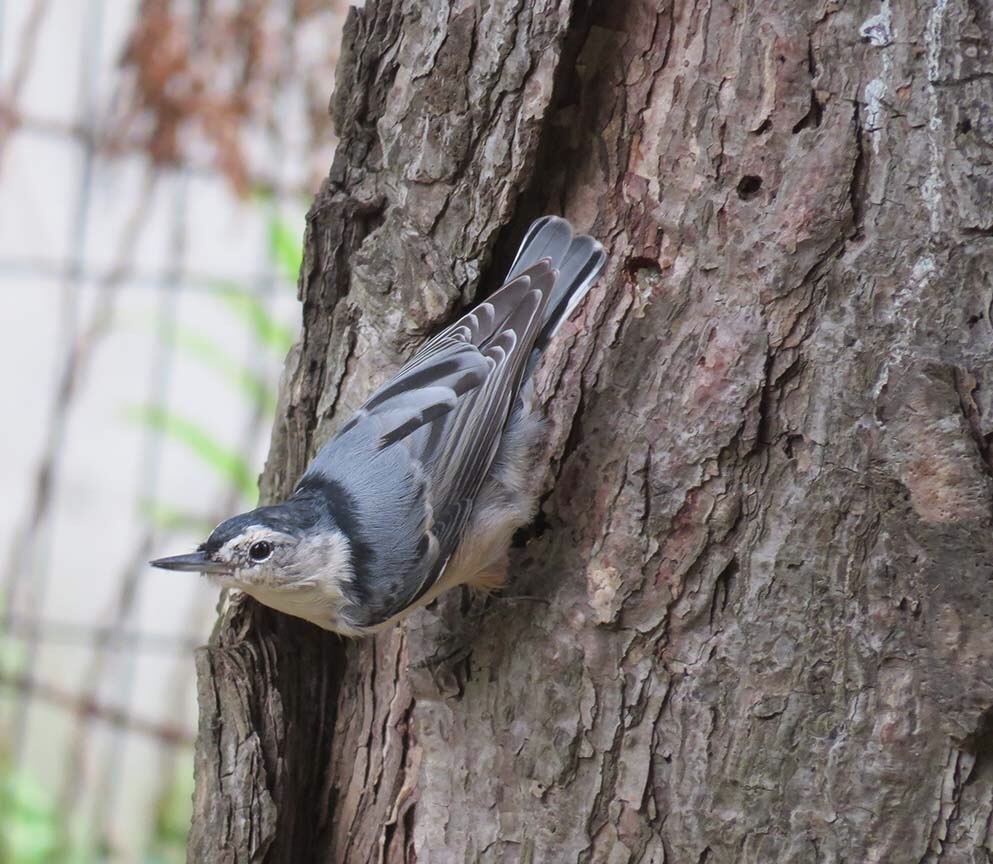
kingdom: Animalia
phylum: Chordata
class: Aves
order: Passeriformes
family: Sittidae
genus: Sitta
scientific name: Sitta carolinensis
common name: White-breasted nuthatch
